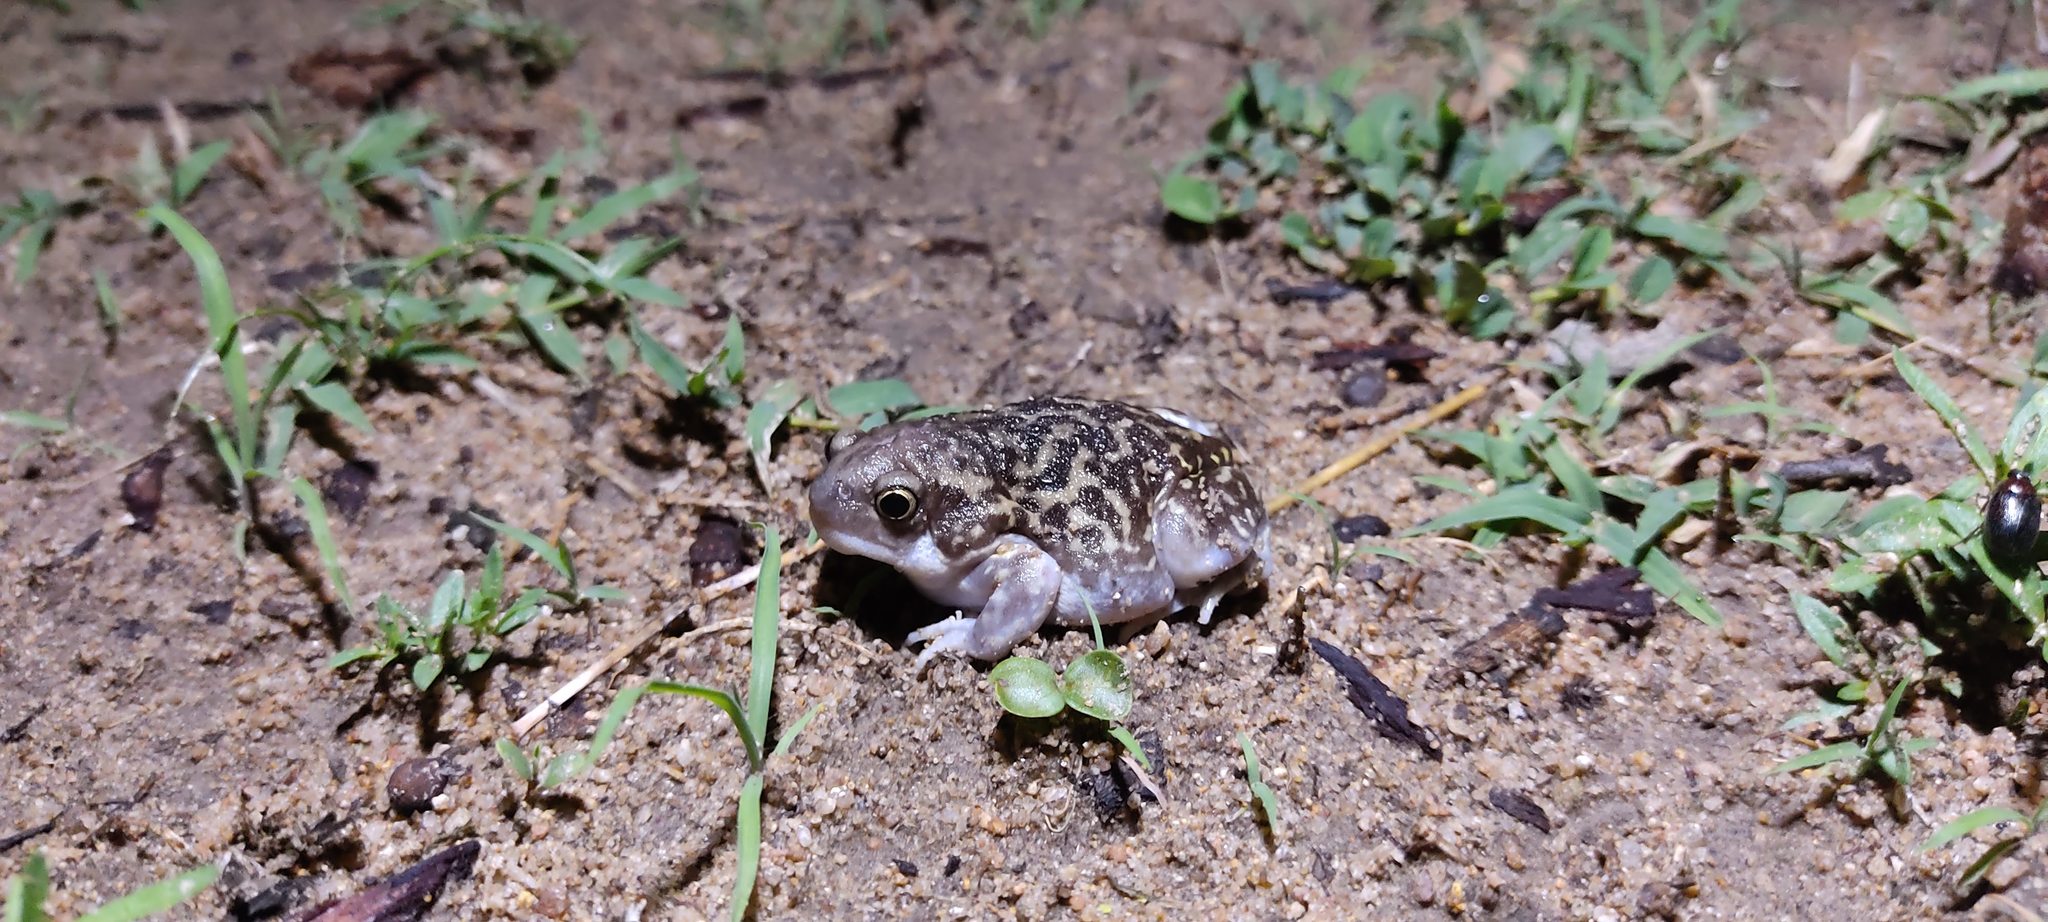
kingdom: Animalia
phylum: Chordata
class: Amphibia
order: Anura
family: Microhylidae
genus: Uperodon
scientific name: Uperodon systoma
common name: Balloon frog
